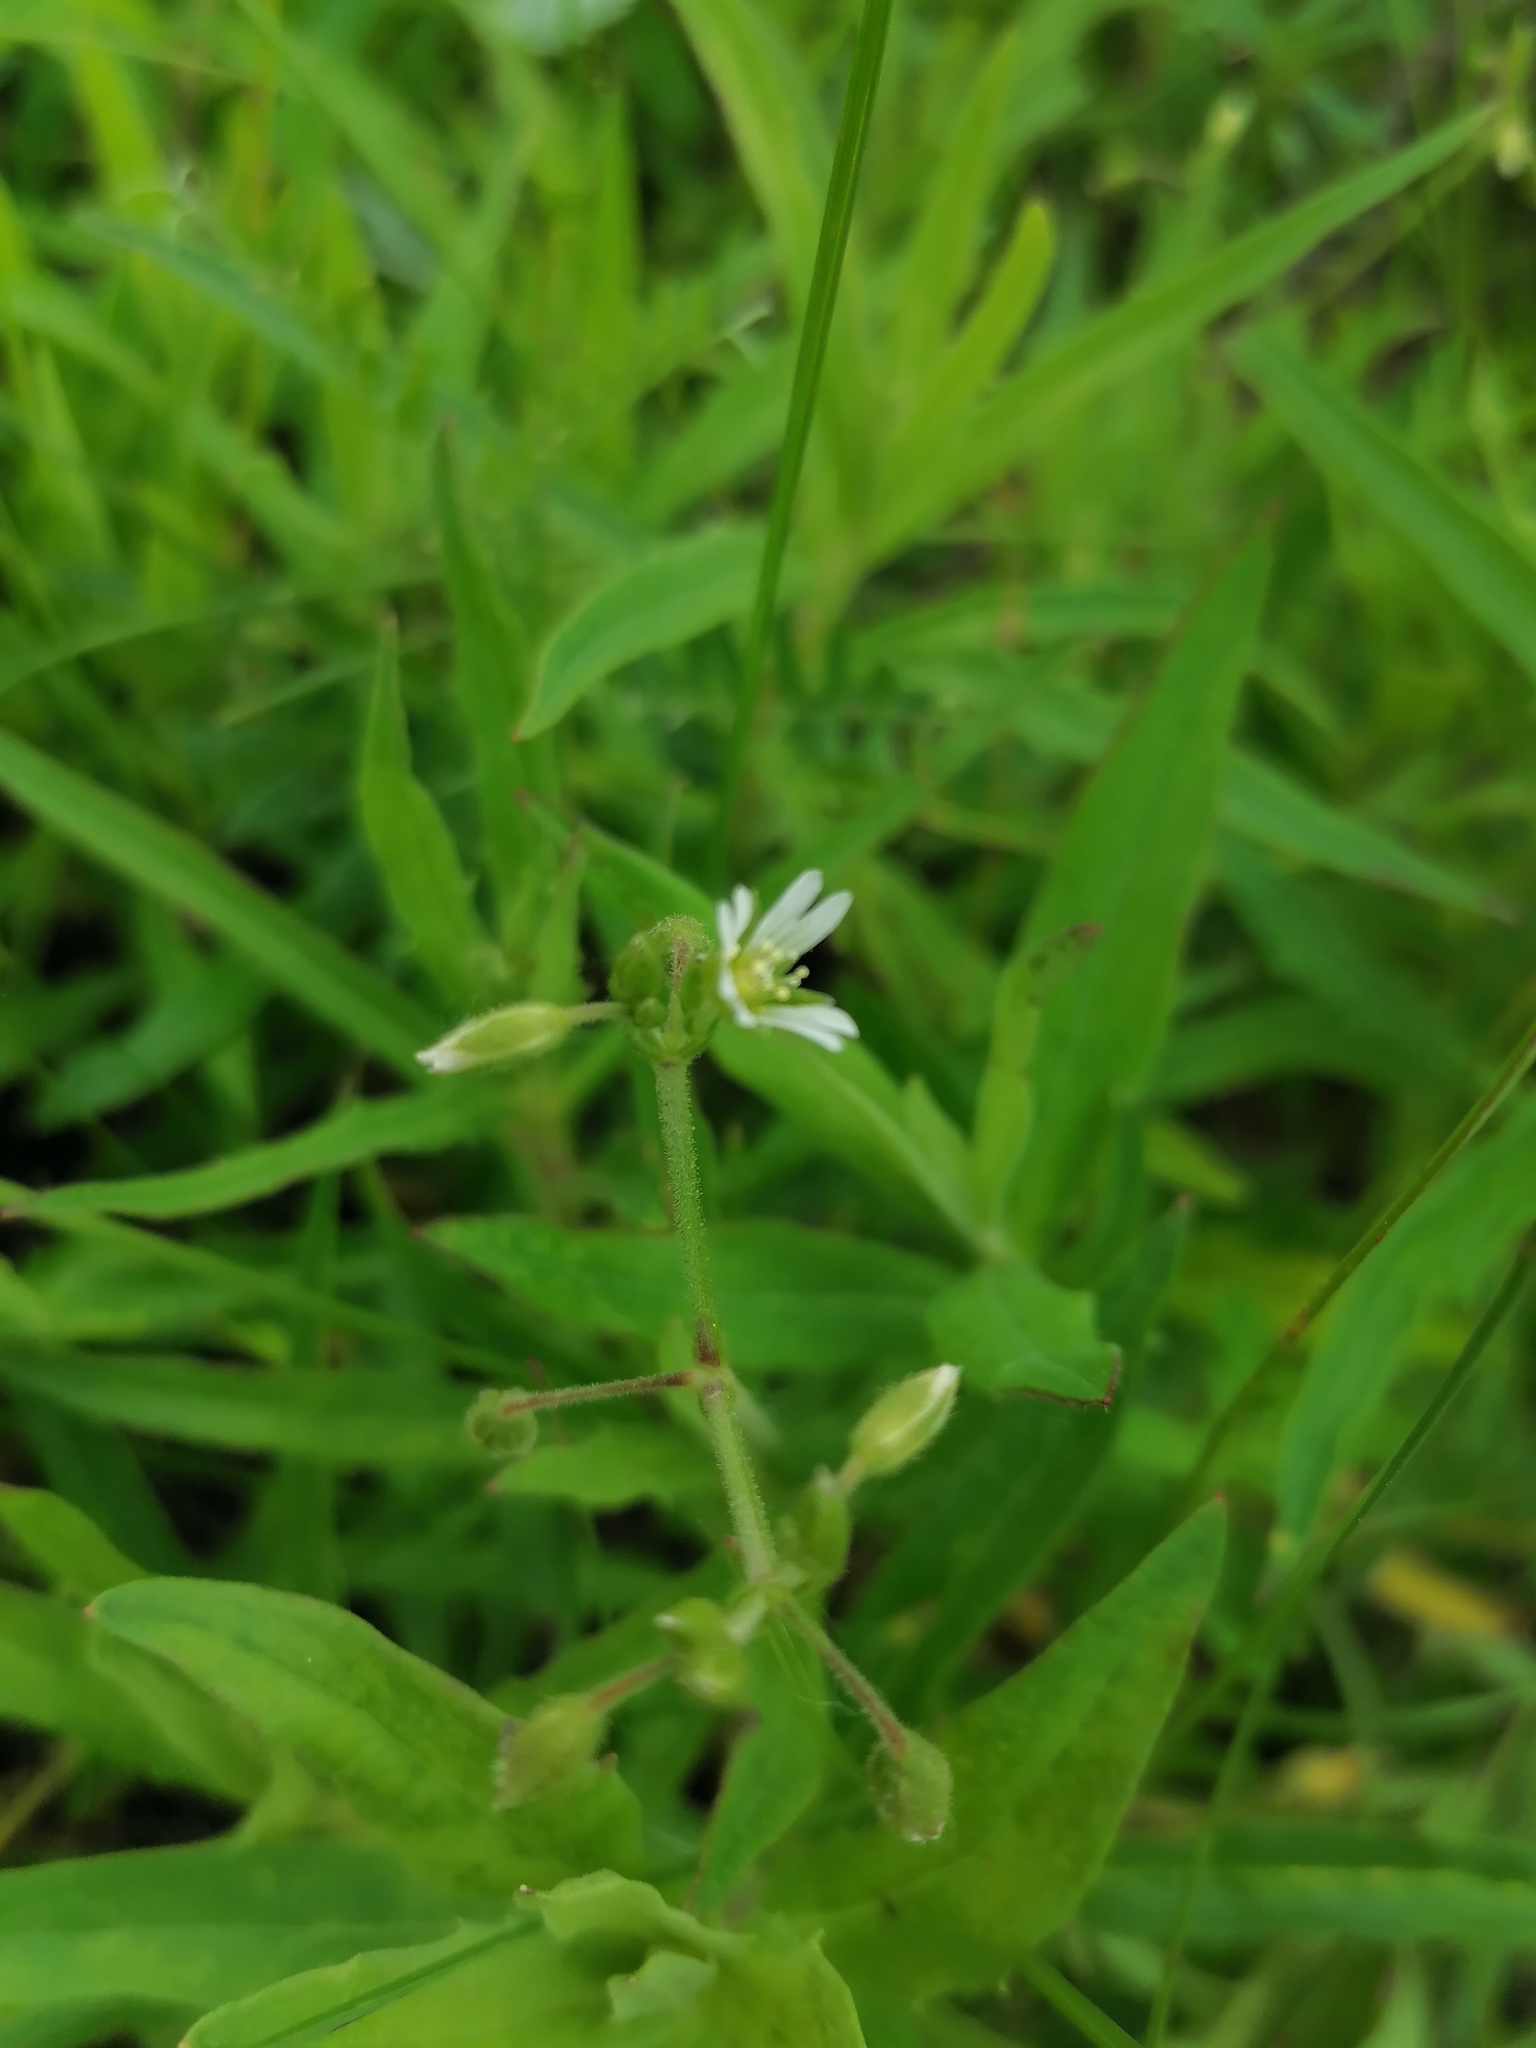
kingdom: Plantae
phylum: Tracheophyta
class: Magnoliopsida
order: Caryophyllales
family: Caryophyllaceae
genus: Cerastium
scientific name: Cerastium holosteoides
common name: Big chickweed
